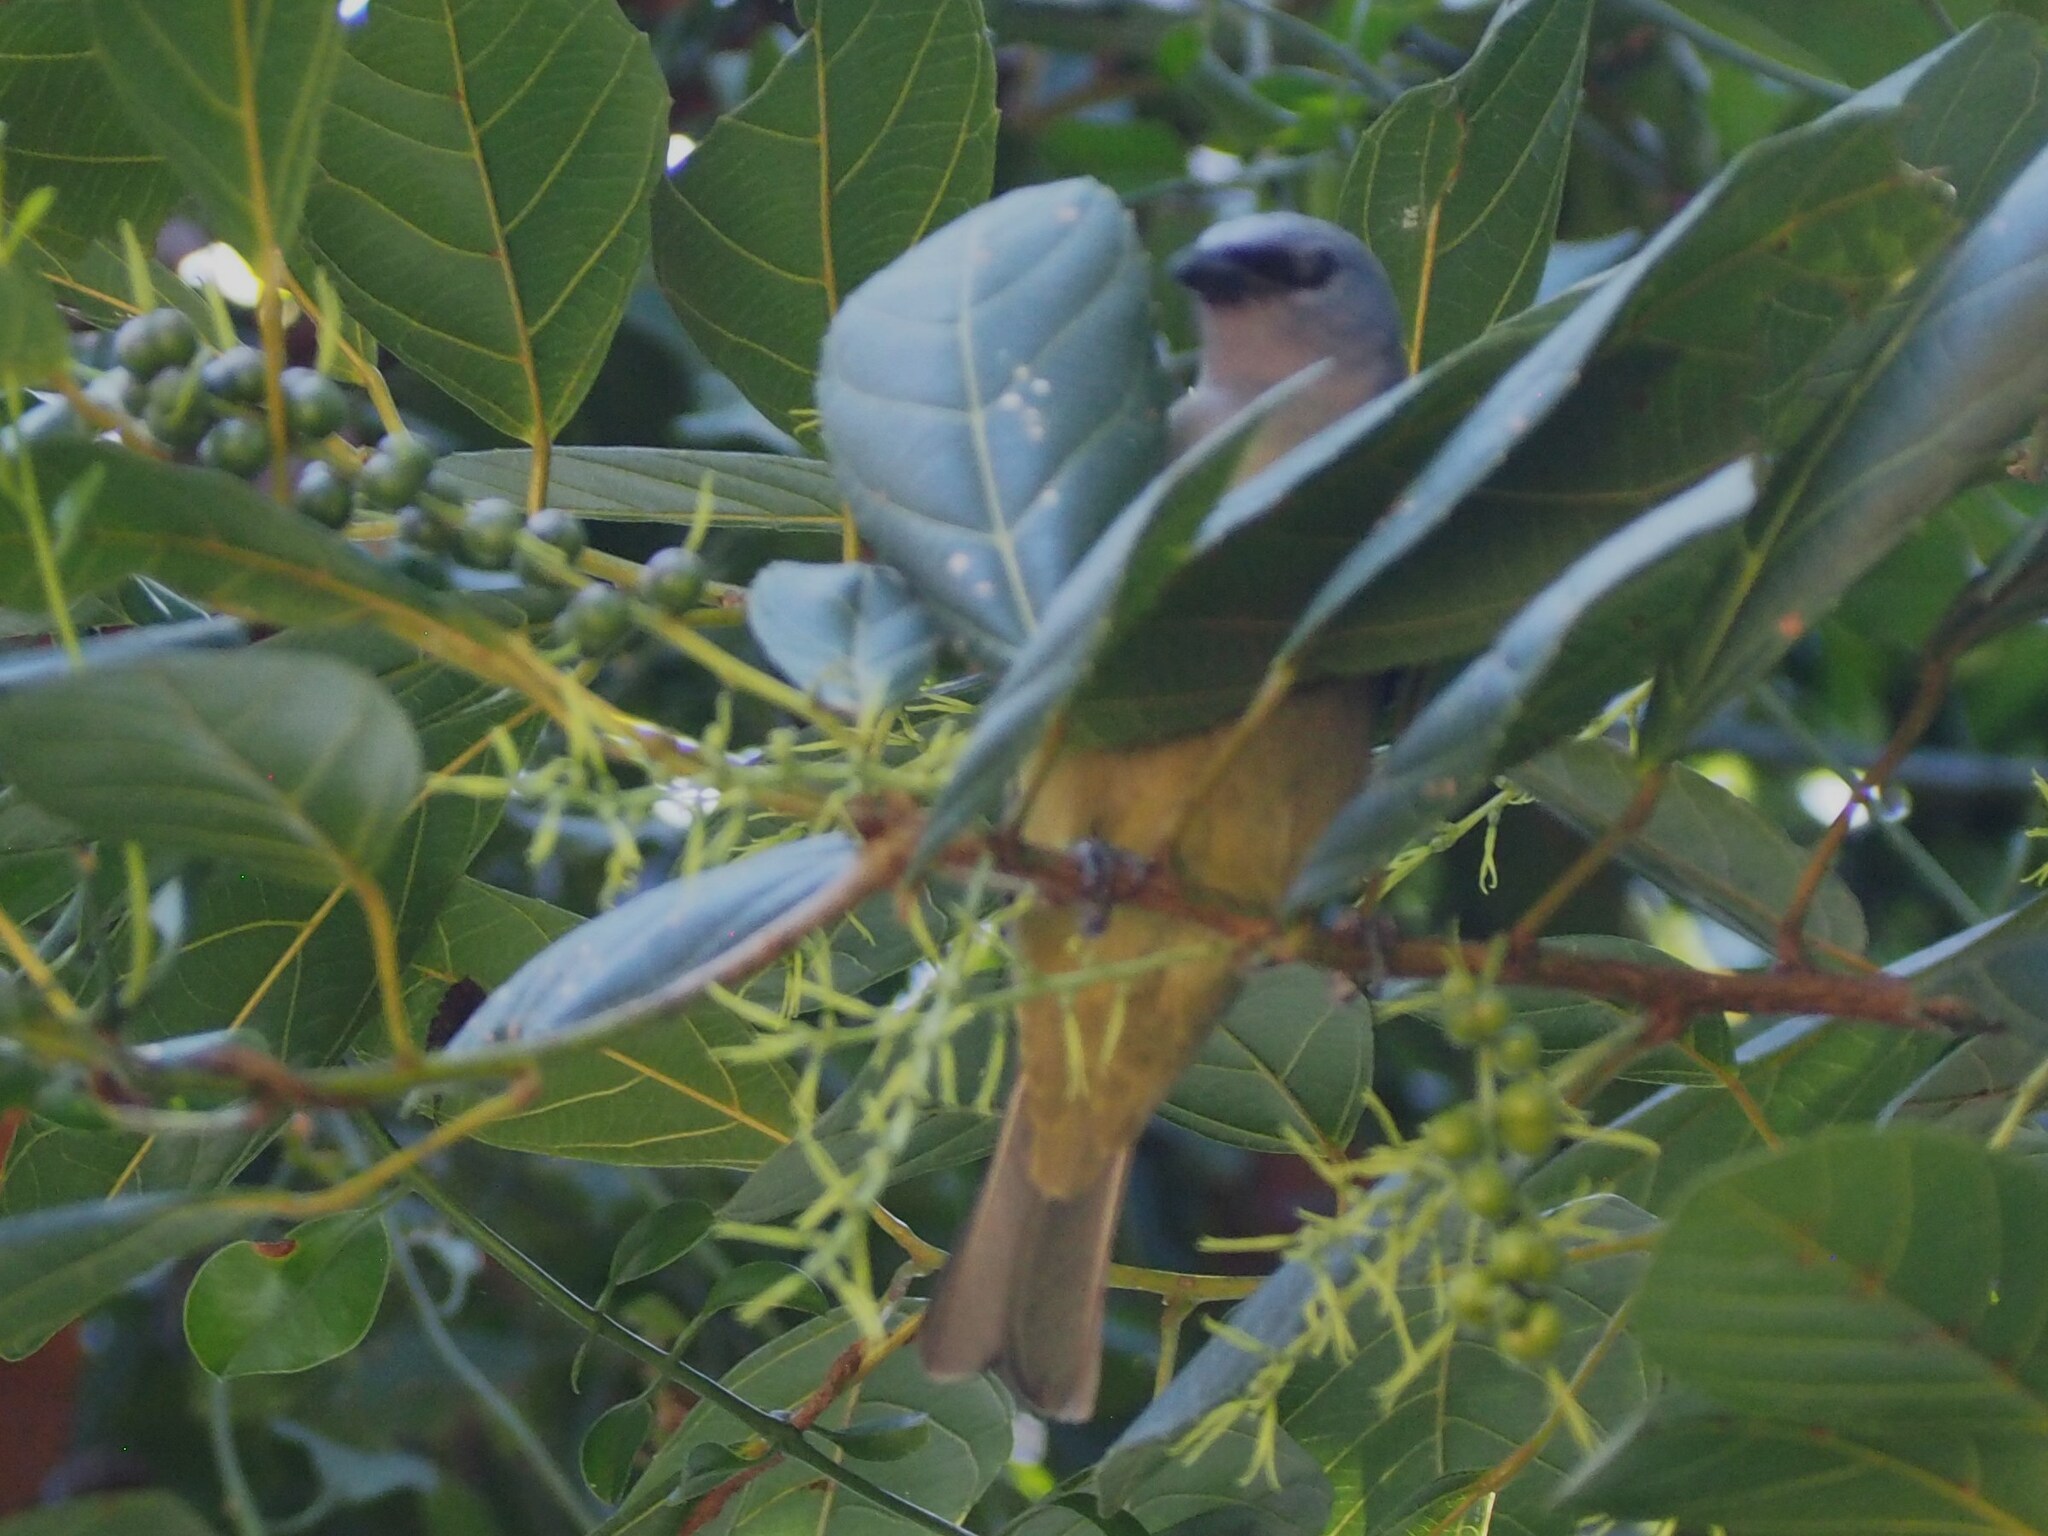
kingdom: Animalia
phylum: Chordata
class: Aves
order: Passeriformes
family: Thraupidae
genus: Thraupis
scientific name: Thraupis abbas
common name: Yellow-winged tanager
